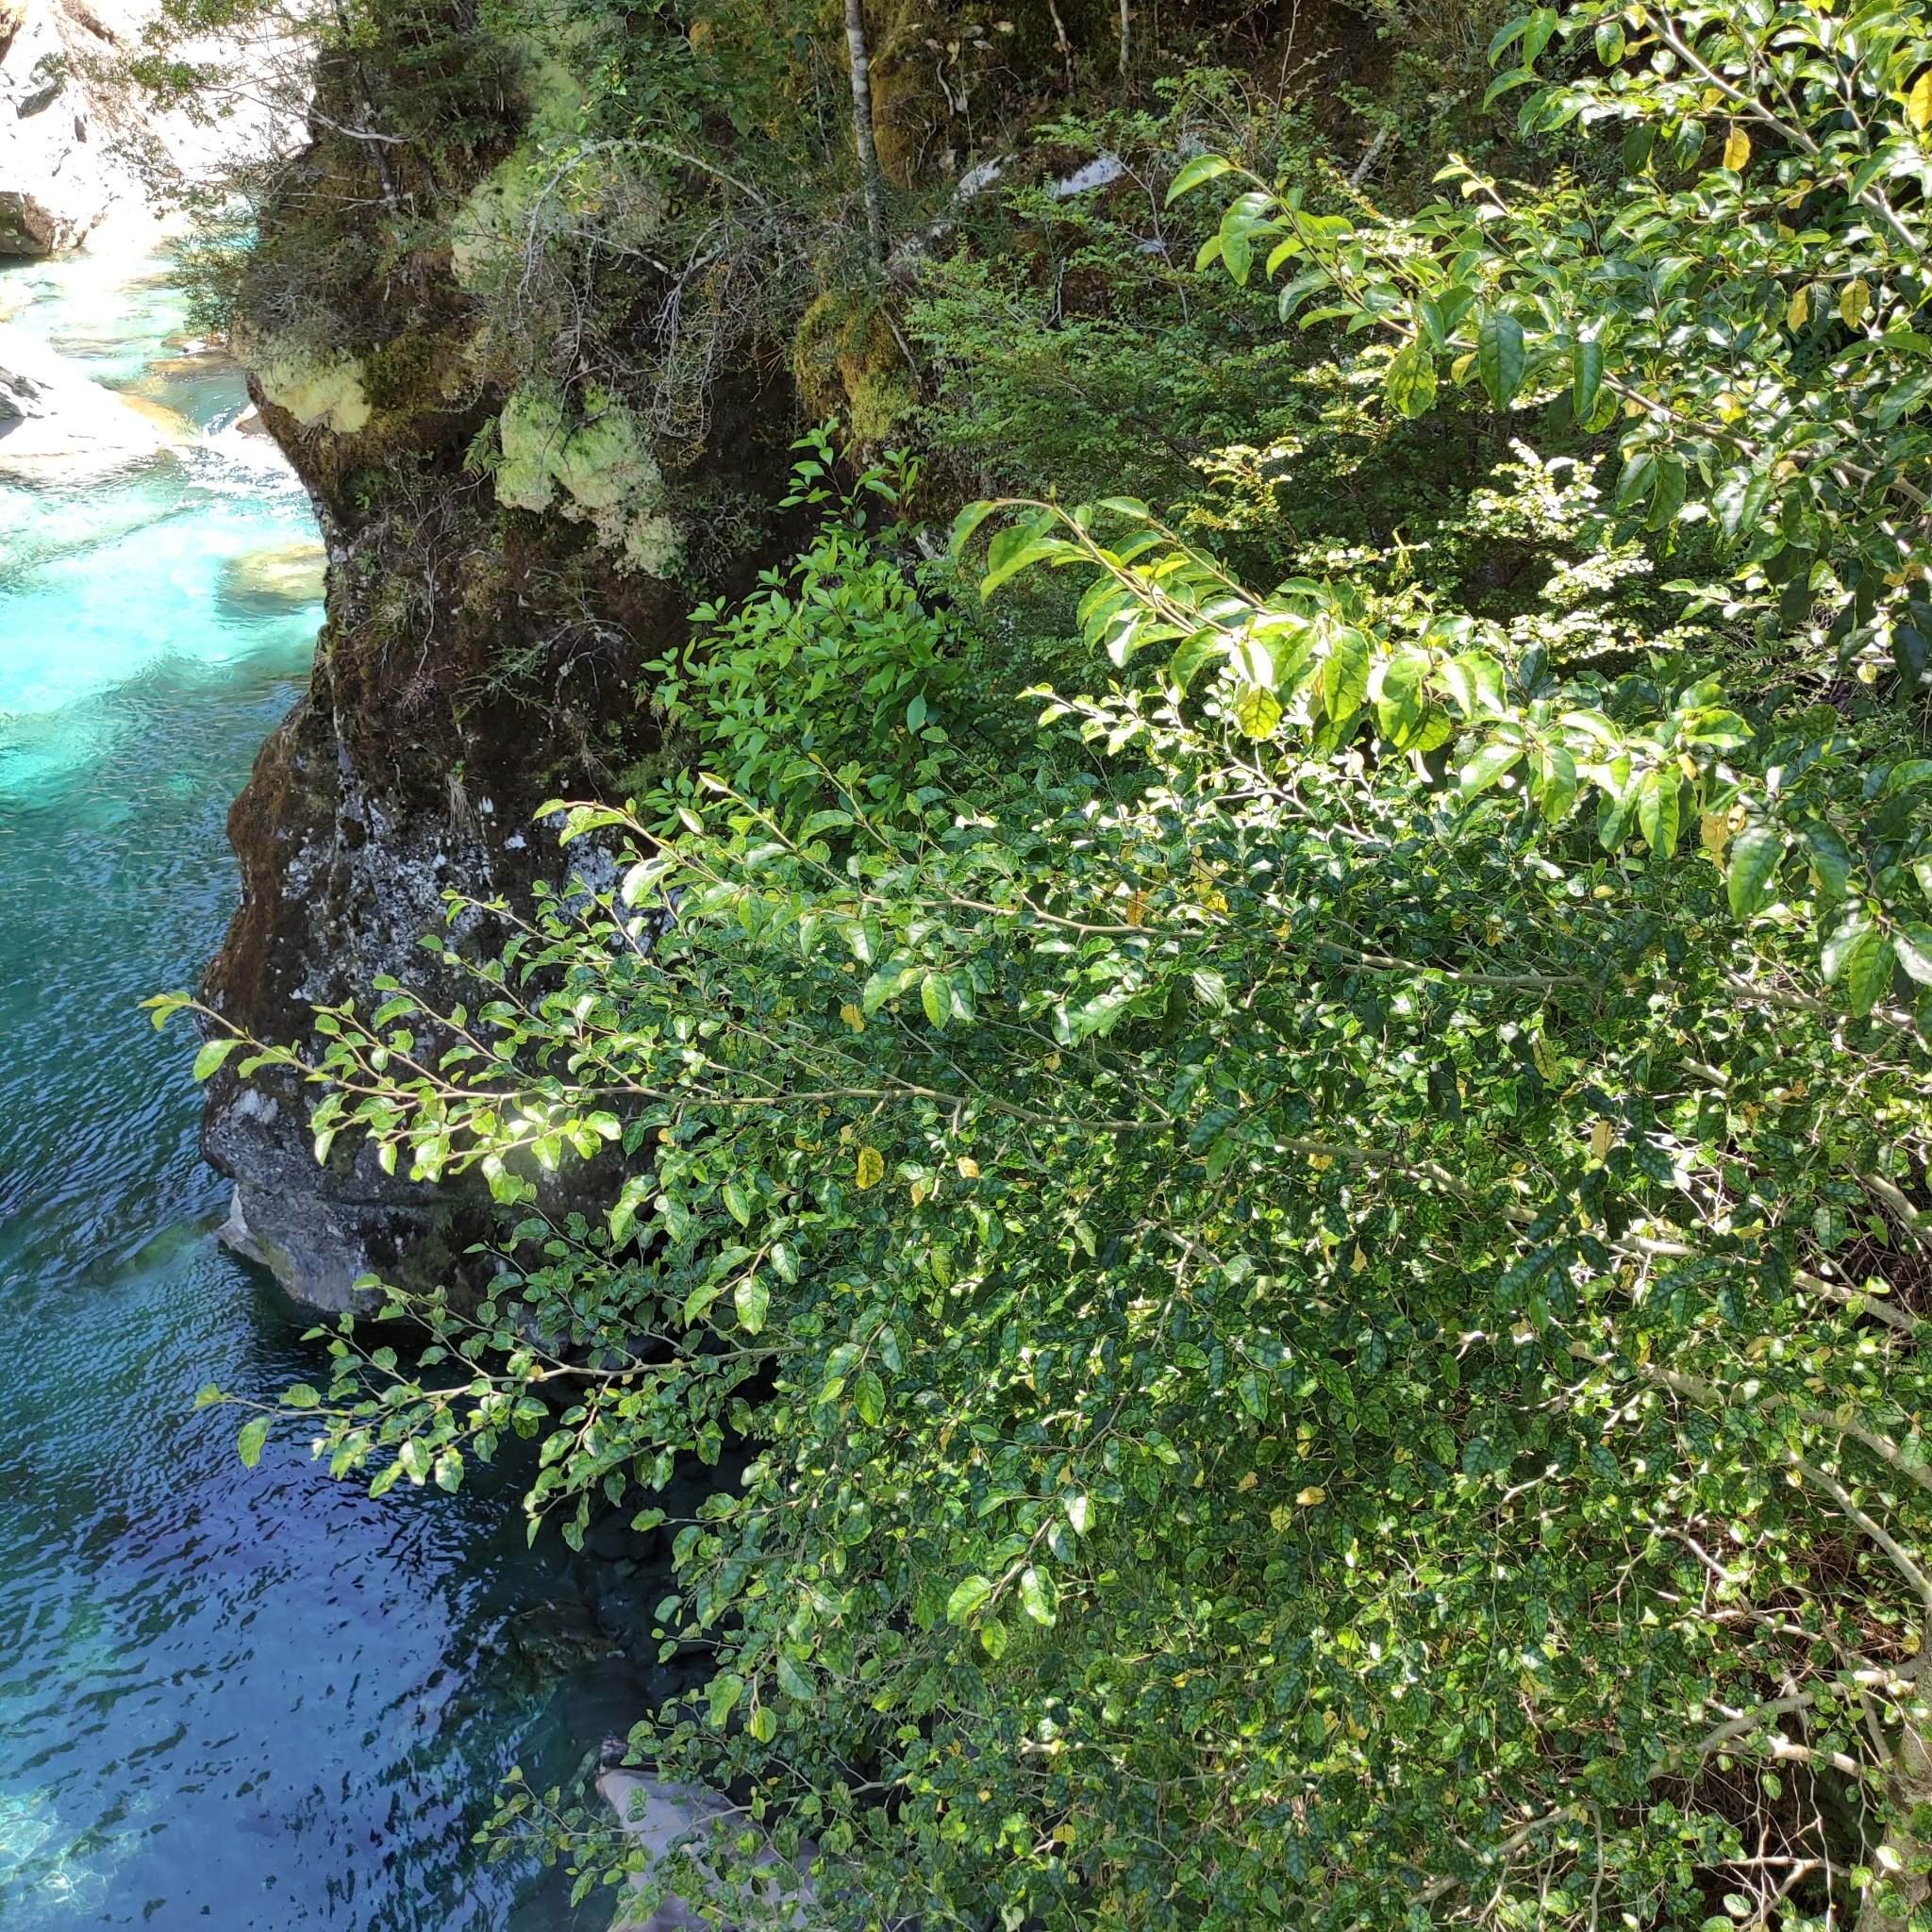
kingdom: Plantae
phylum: Tracheophyta
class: Magnoliopsida
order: Asterales
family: Rousseaceae
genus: Carpodetus
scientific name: Carpodetus serratus
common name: White mapau
